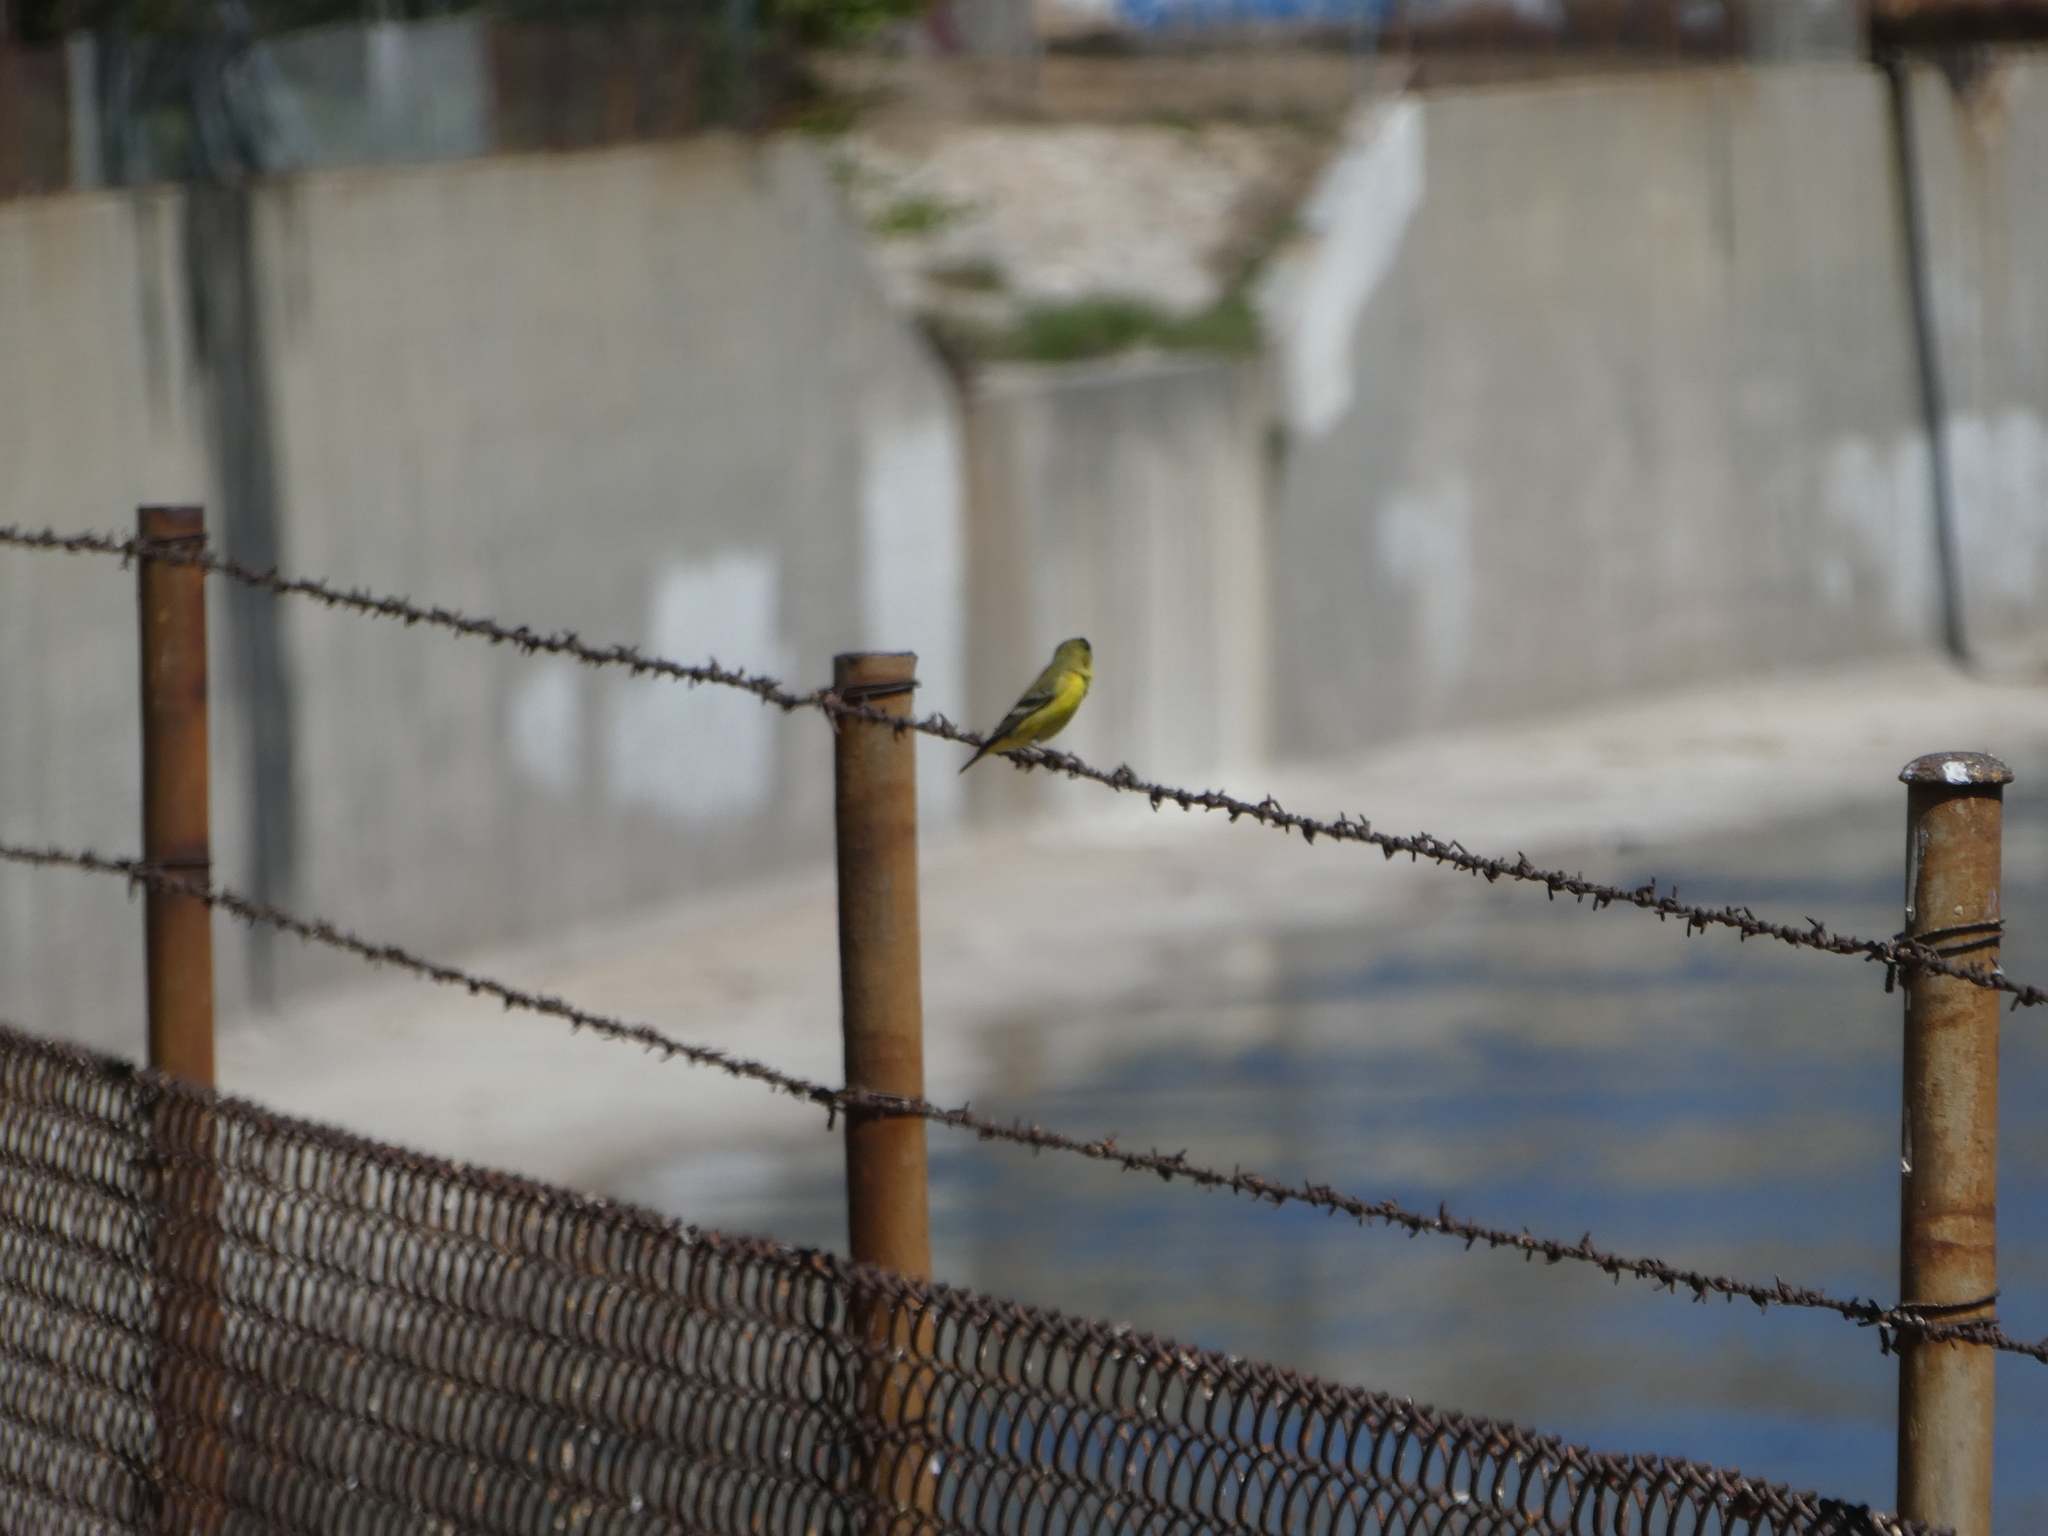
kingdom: Animalia
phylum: Chordata
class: Aves
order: Passeriformes
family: Fringillidae
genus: Spinus
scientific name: Spinus psaltria
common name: Lesser goldfinch
